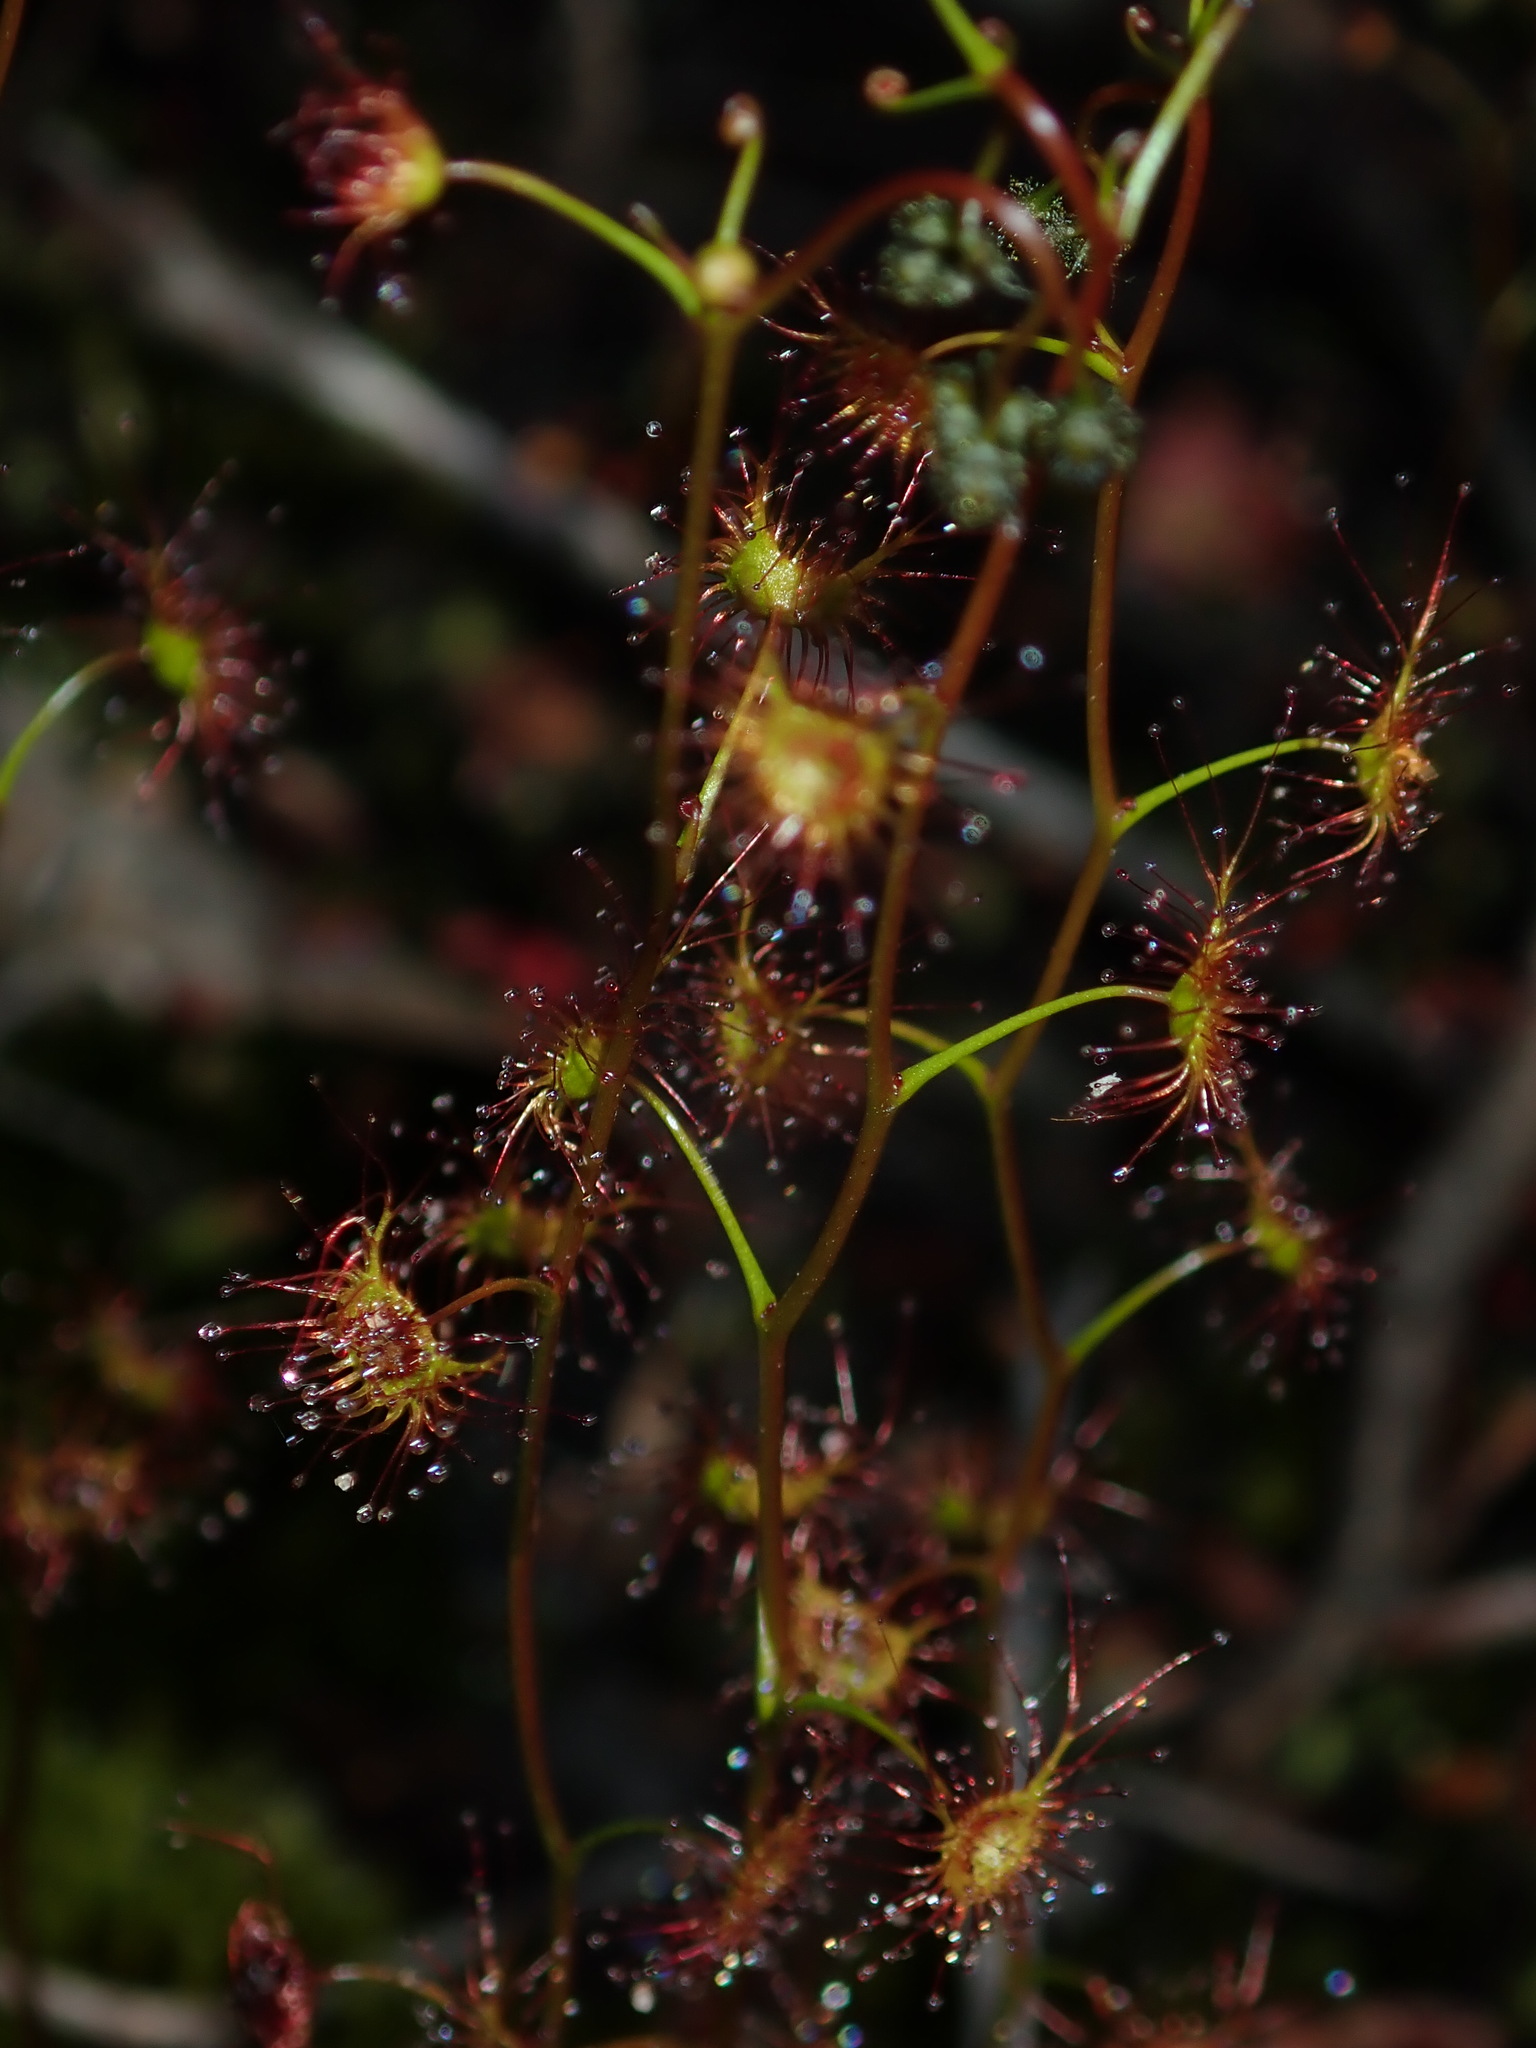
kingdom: Plantae
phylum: Tracheophyta
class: Magnoliopsida
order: Caryophyllales
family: Droseraceae
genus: Drosera
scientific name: Drosera peltata
